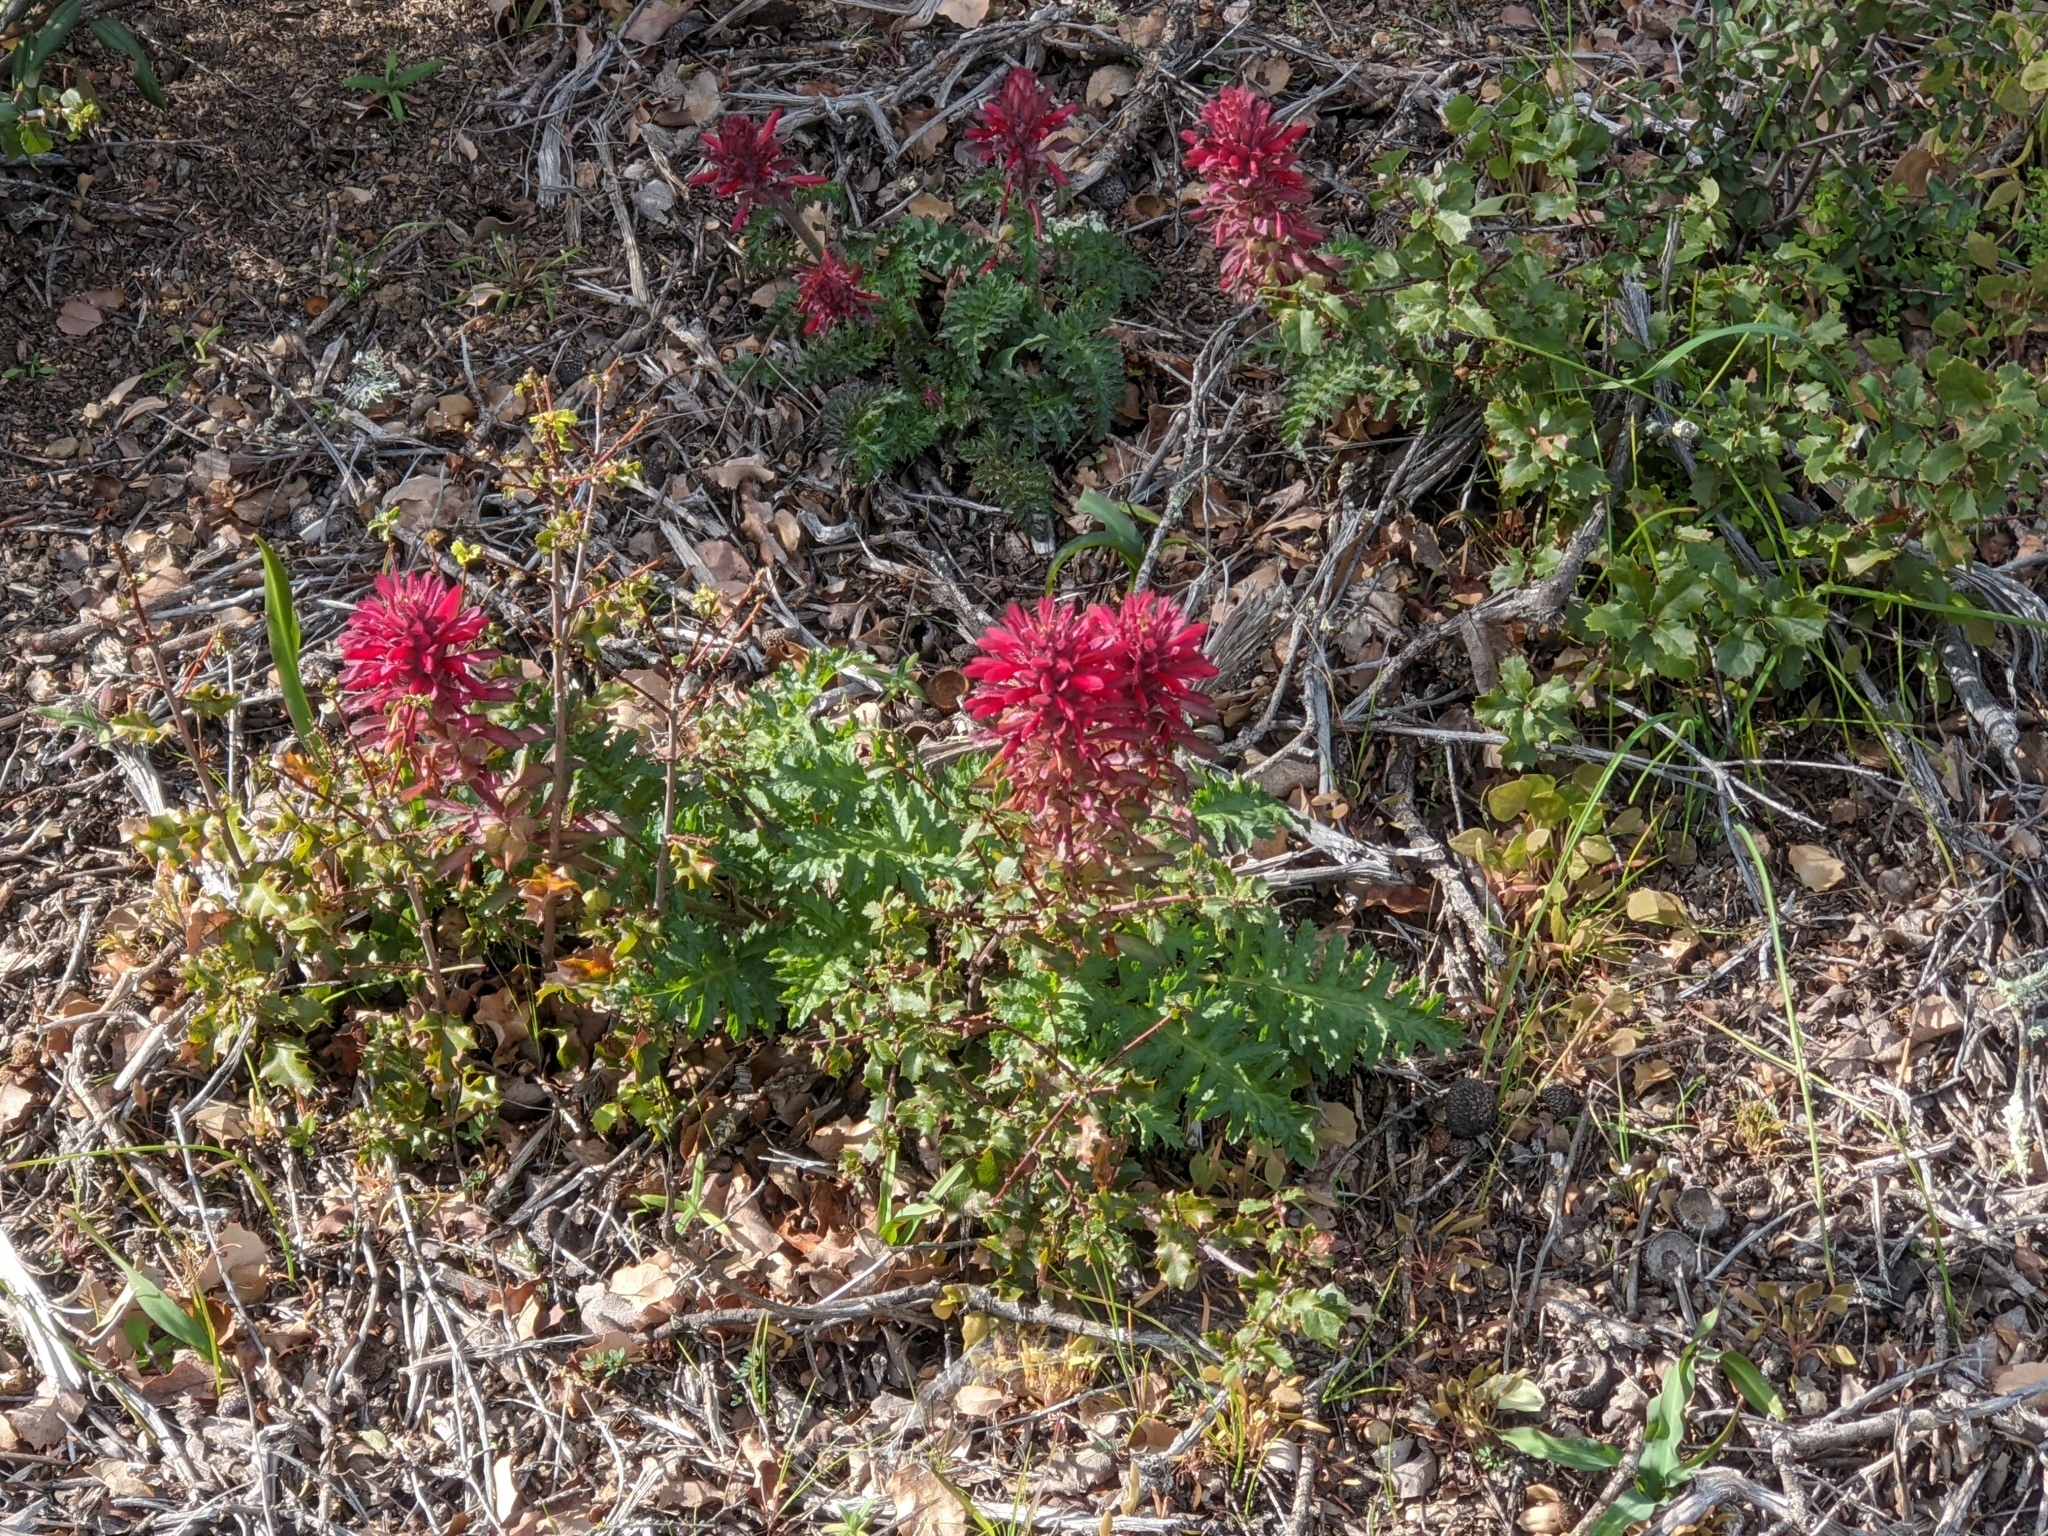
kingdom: Plantae
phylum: Tracheophyta
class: Magnoliopsida
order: Lamiales
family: Orobanchaceae
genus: Pedicularis
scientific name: Pedicularis densiflora
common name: Indian warrior
